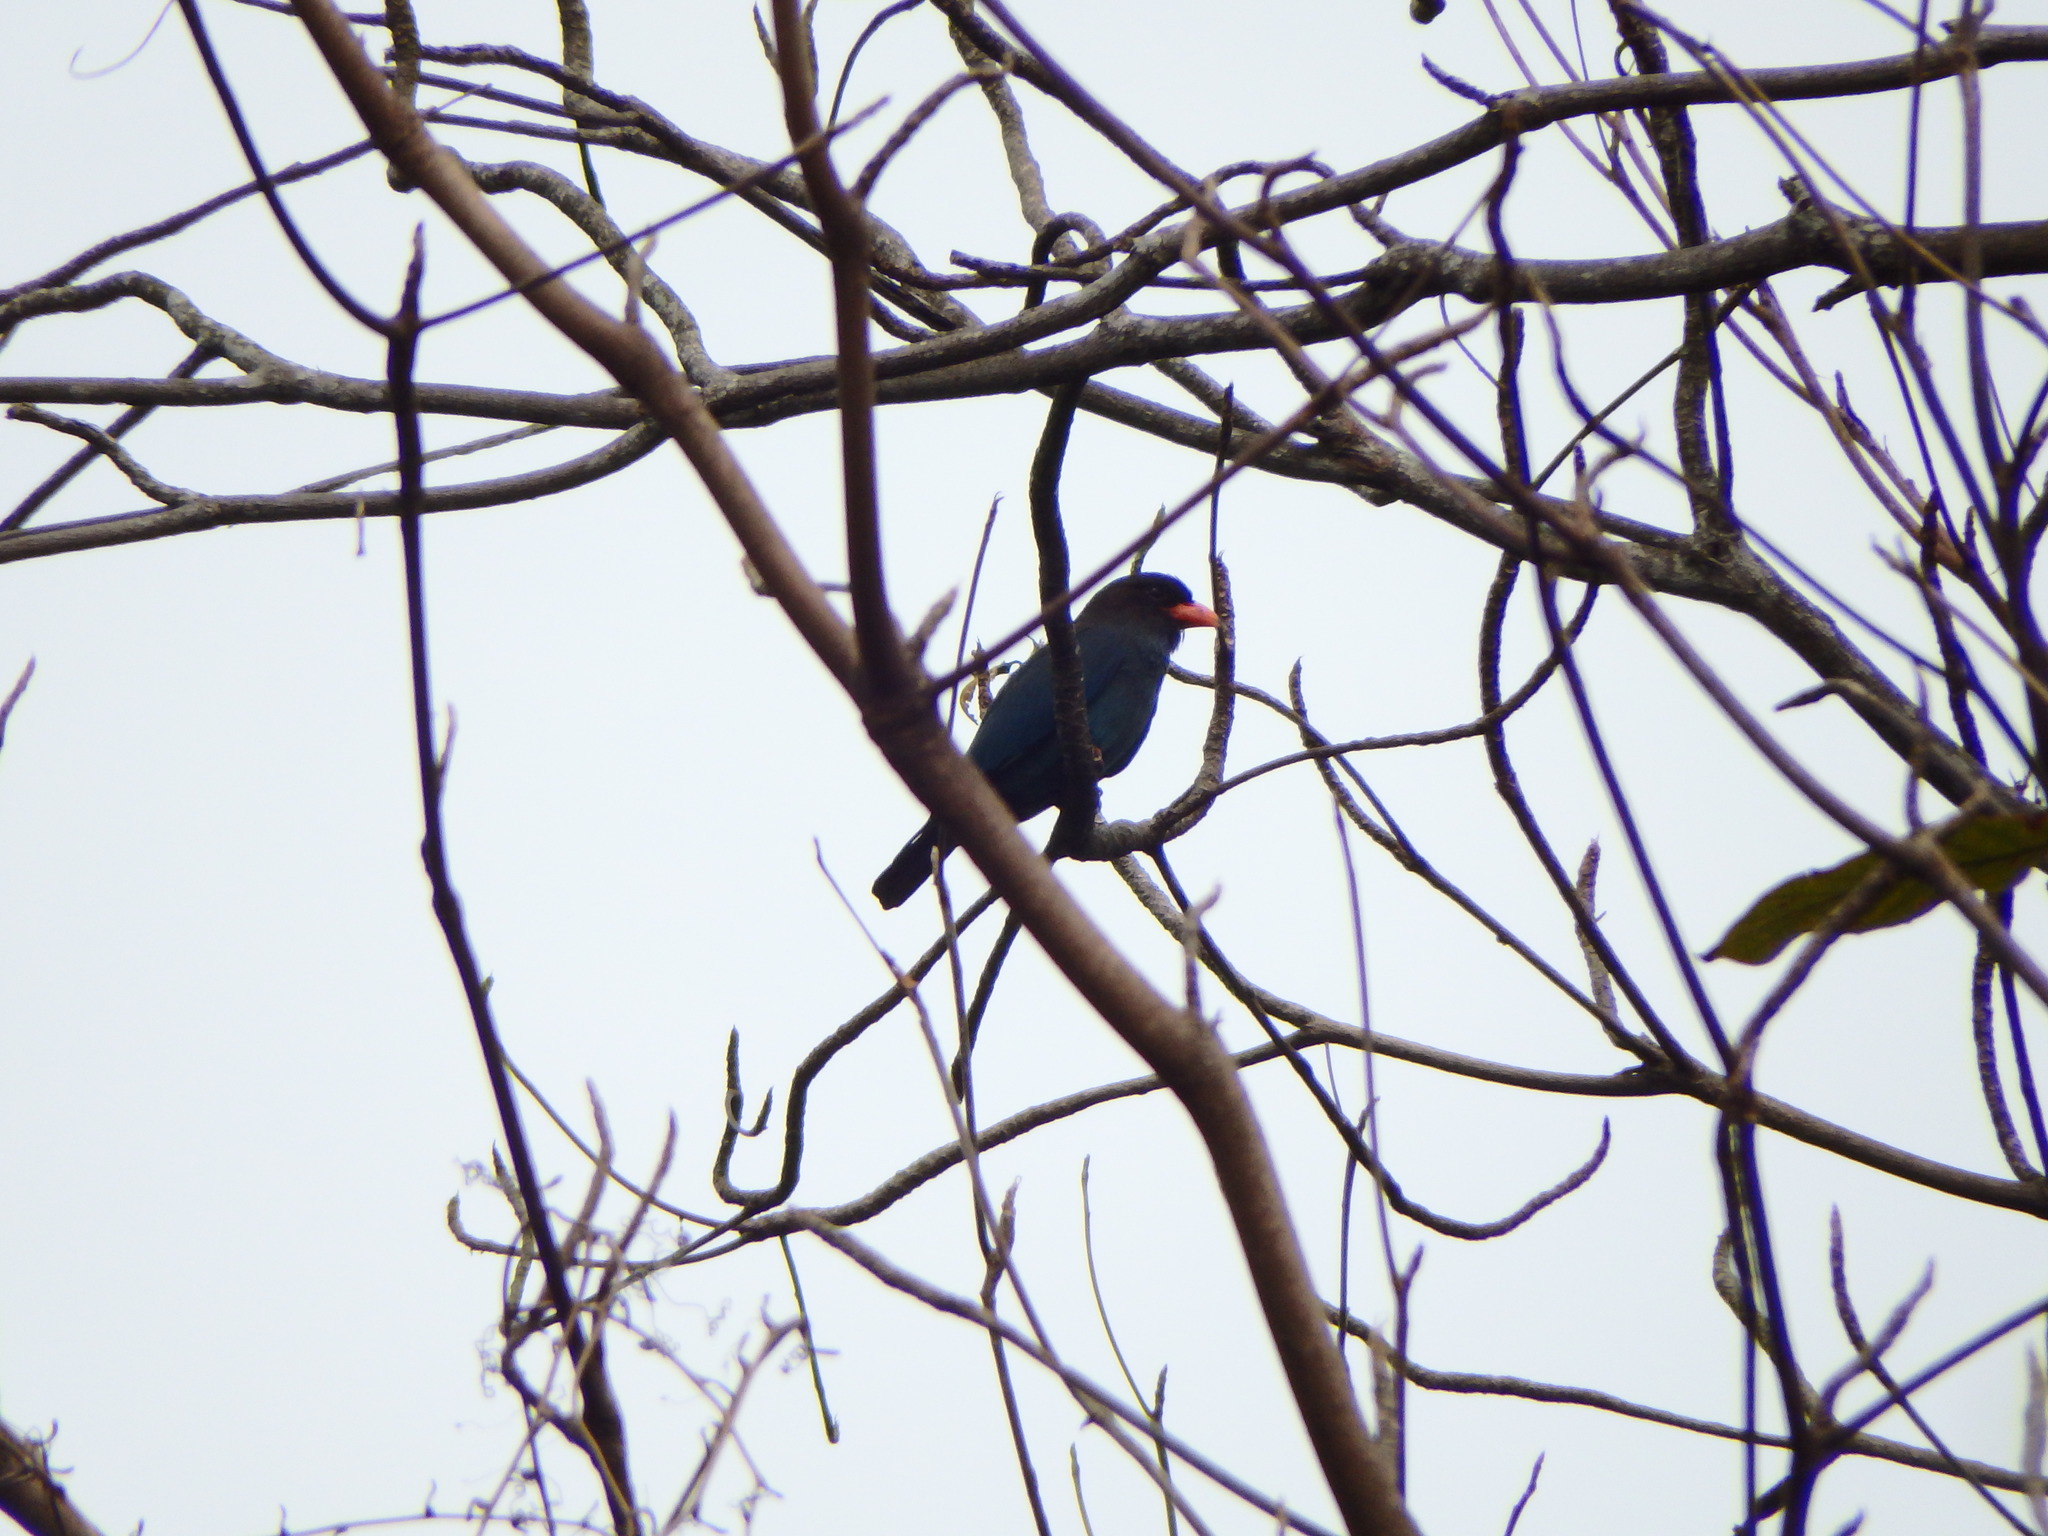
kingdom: Animalia
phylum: Chordata
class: Aves
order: Coraciiformes
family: Coraciidae
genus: Eurystomus
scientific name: Eurystomus orientalis
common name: Oriental dollarbird
